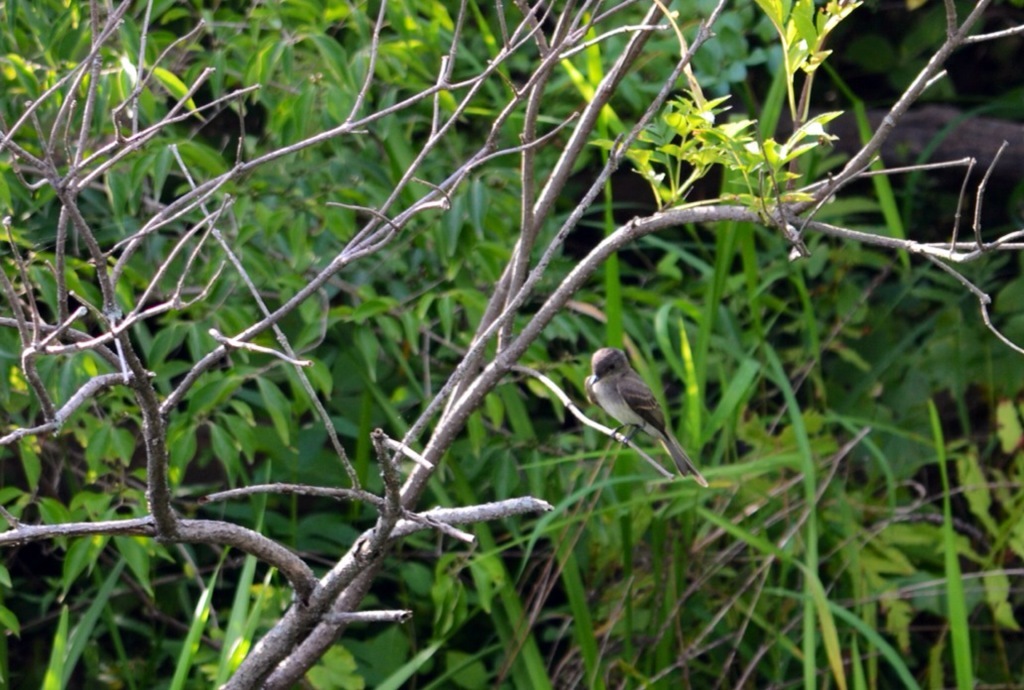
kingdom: Animalia
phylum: Chordata
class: Aves
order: Passeriformes
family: Tyrannidae
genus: Sayornis
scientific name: Sayornis phoebe
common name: Eastern phoebe
